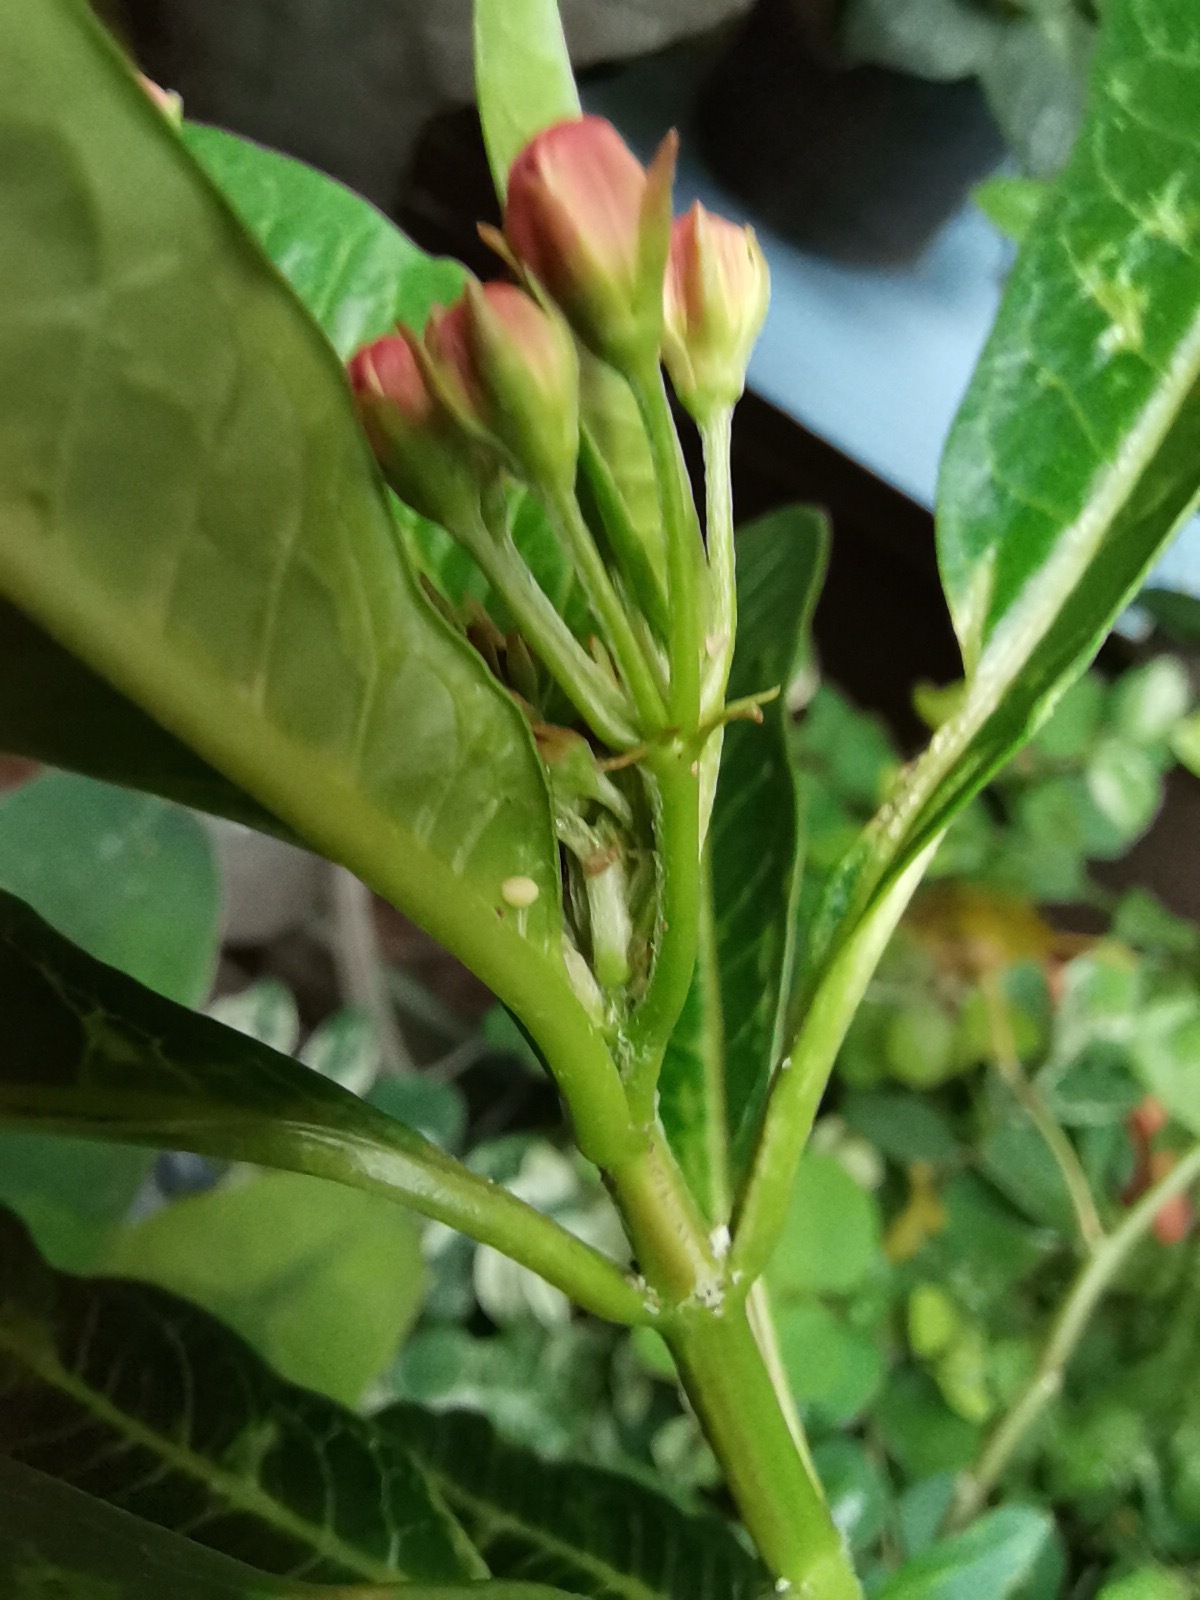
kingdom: Animalia
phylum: Arthropoda
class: Insecta
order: Lepidoptera
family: Nymphalidae
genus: Danaus
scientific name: Danaus plexippus
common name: Monarch
